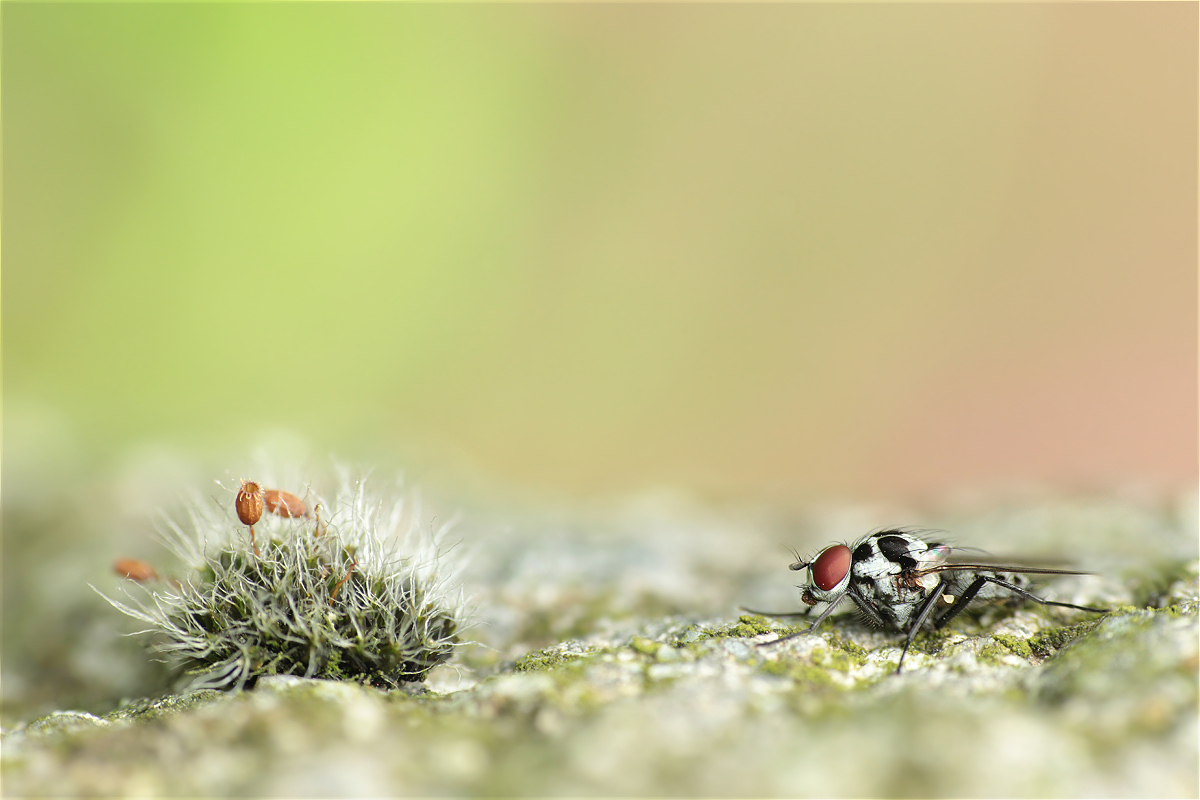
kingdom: Plantae
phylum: Bryophyta
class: Bryopsida
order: Grimmiales
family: Grimmiaceae
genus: Grimmia
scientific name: Grimmia pulvinata
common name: Grey-cushioned grimmia
